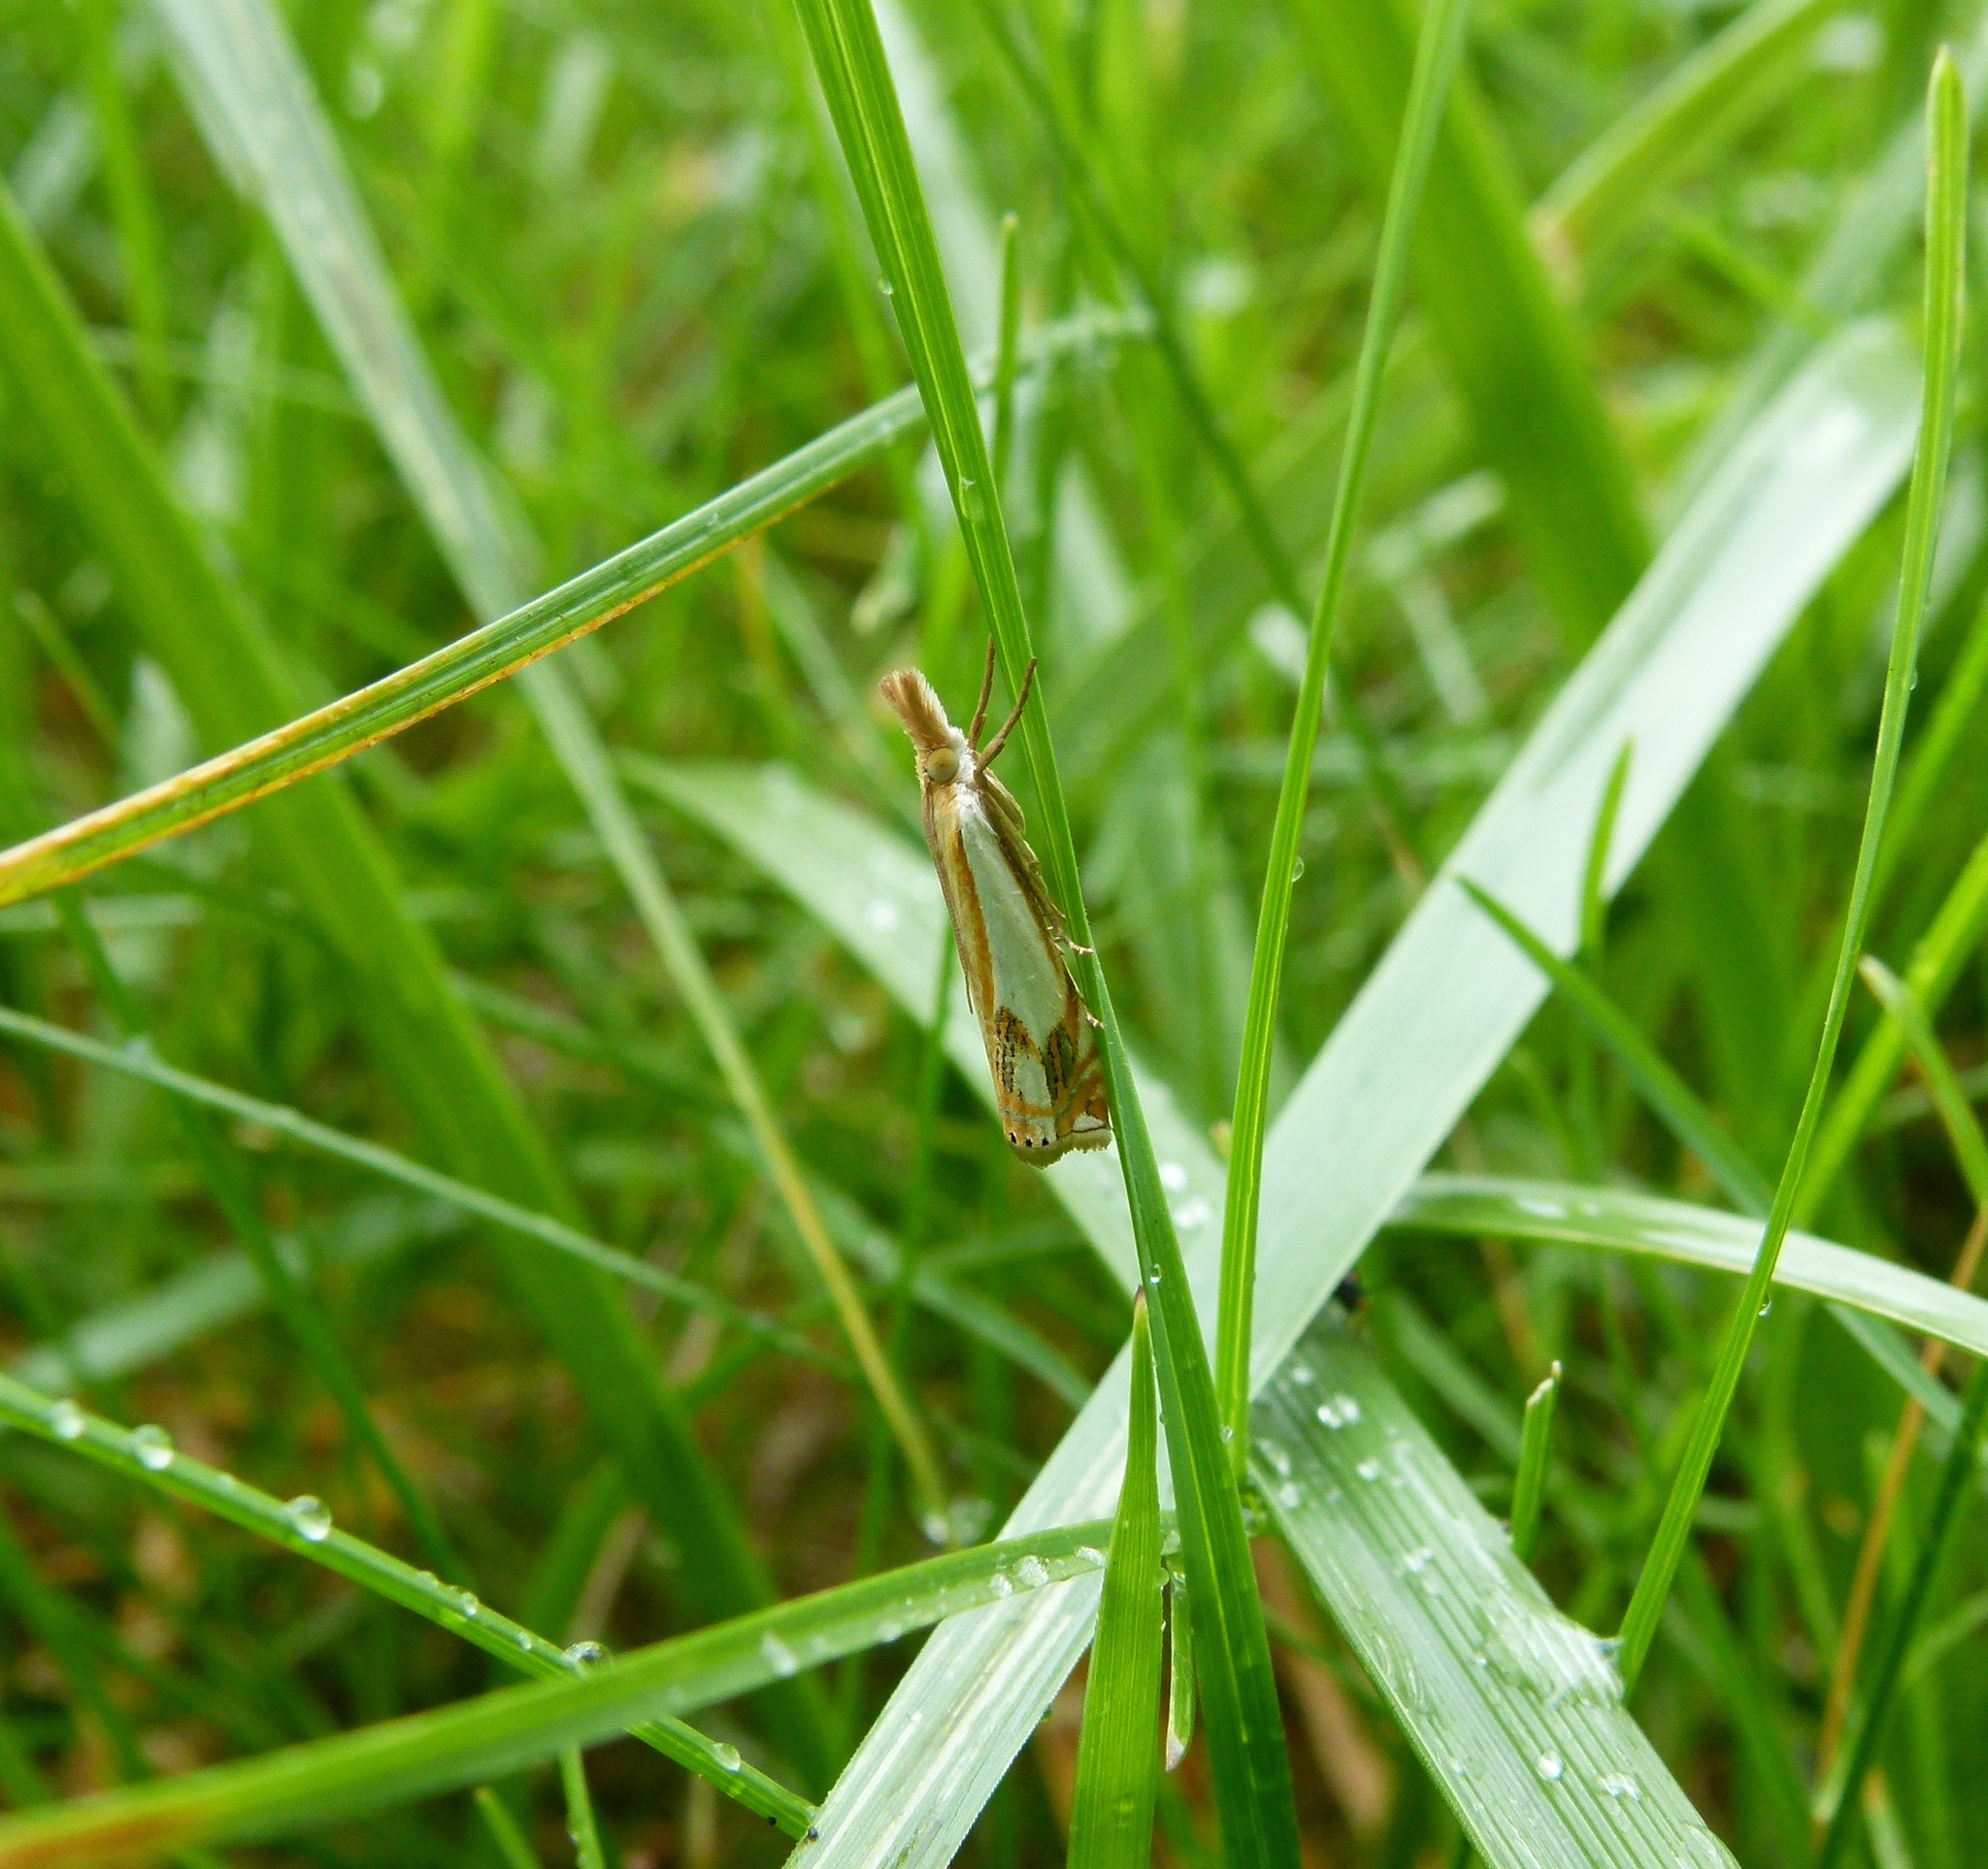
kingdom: Animalia
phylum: Arthropoda
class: Insecta
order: Lepidoptera
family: Crambidae
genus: Crambus
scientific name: Crambus agitatellus
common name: Double-banded grass-veneer
